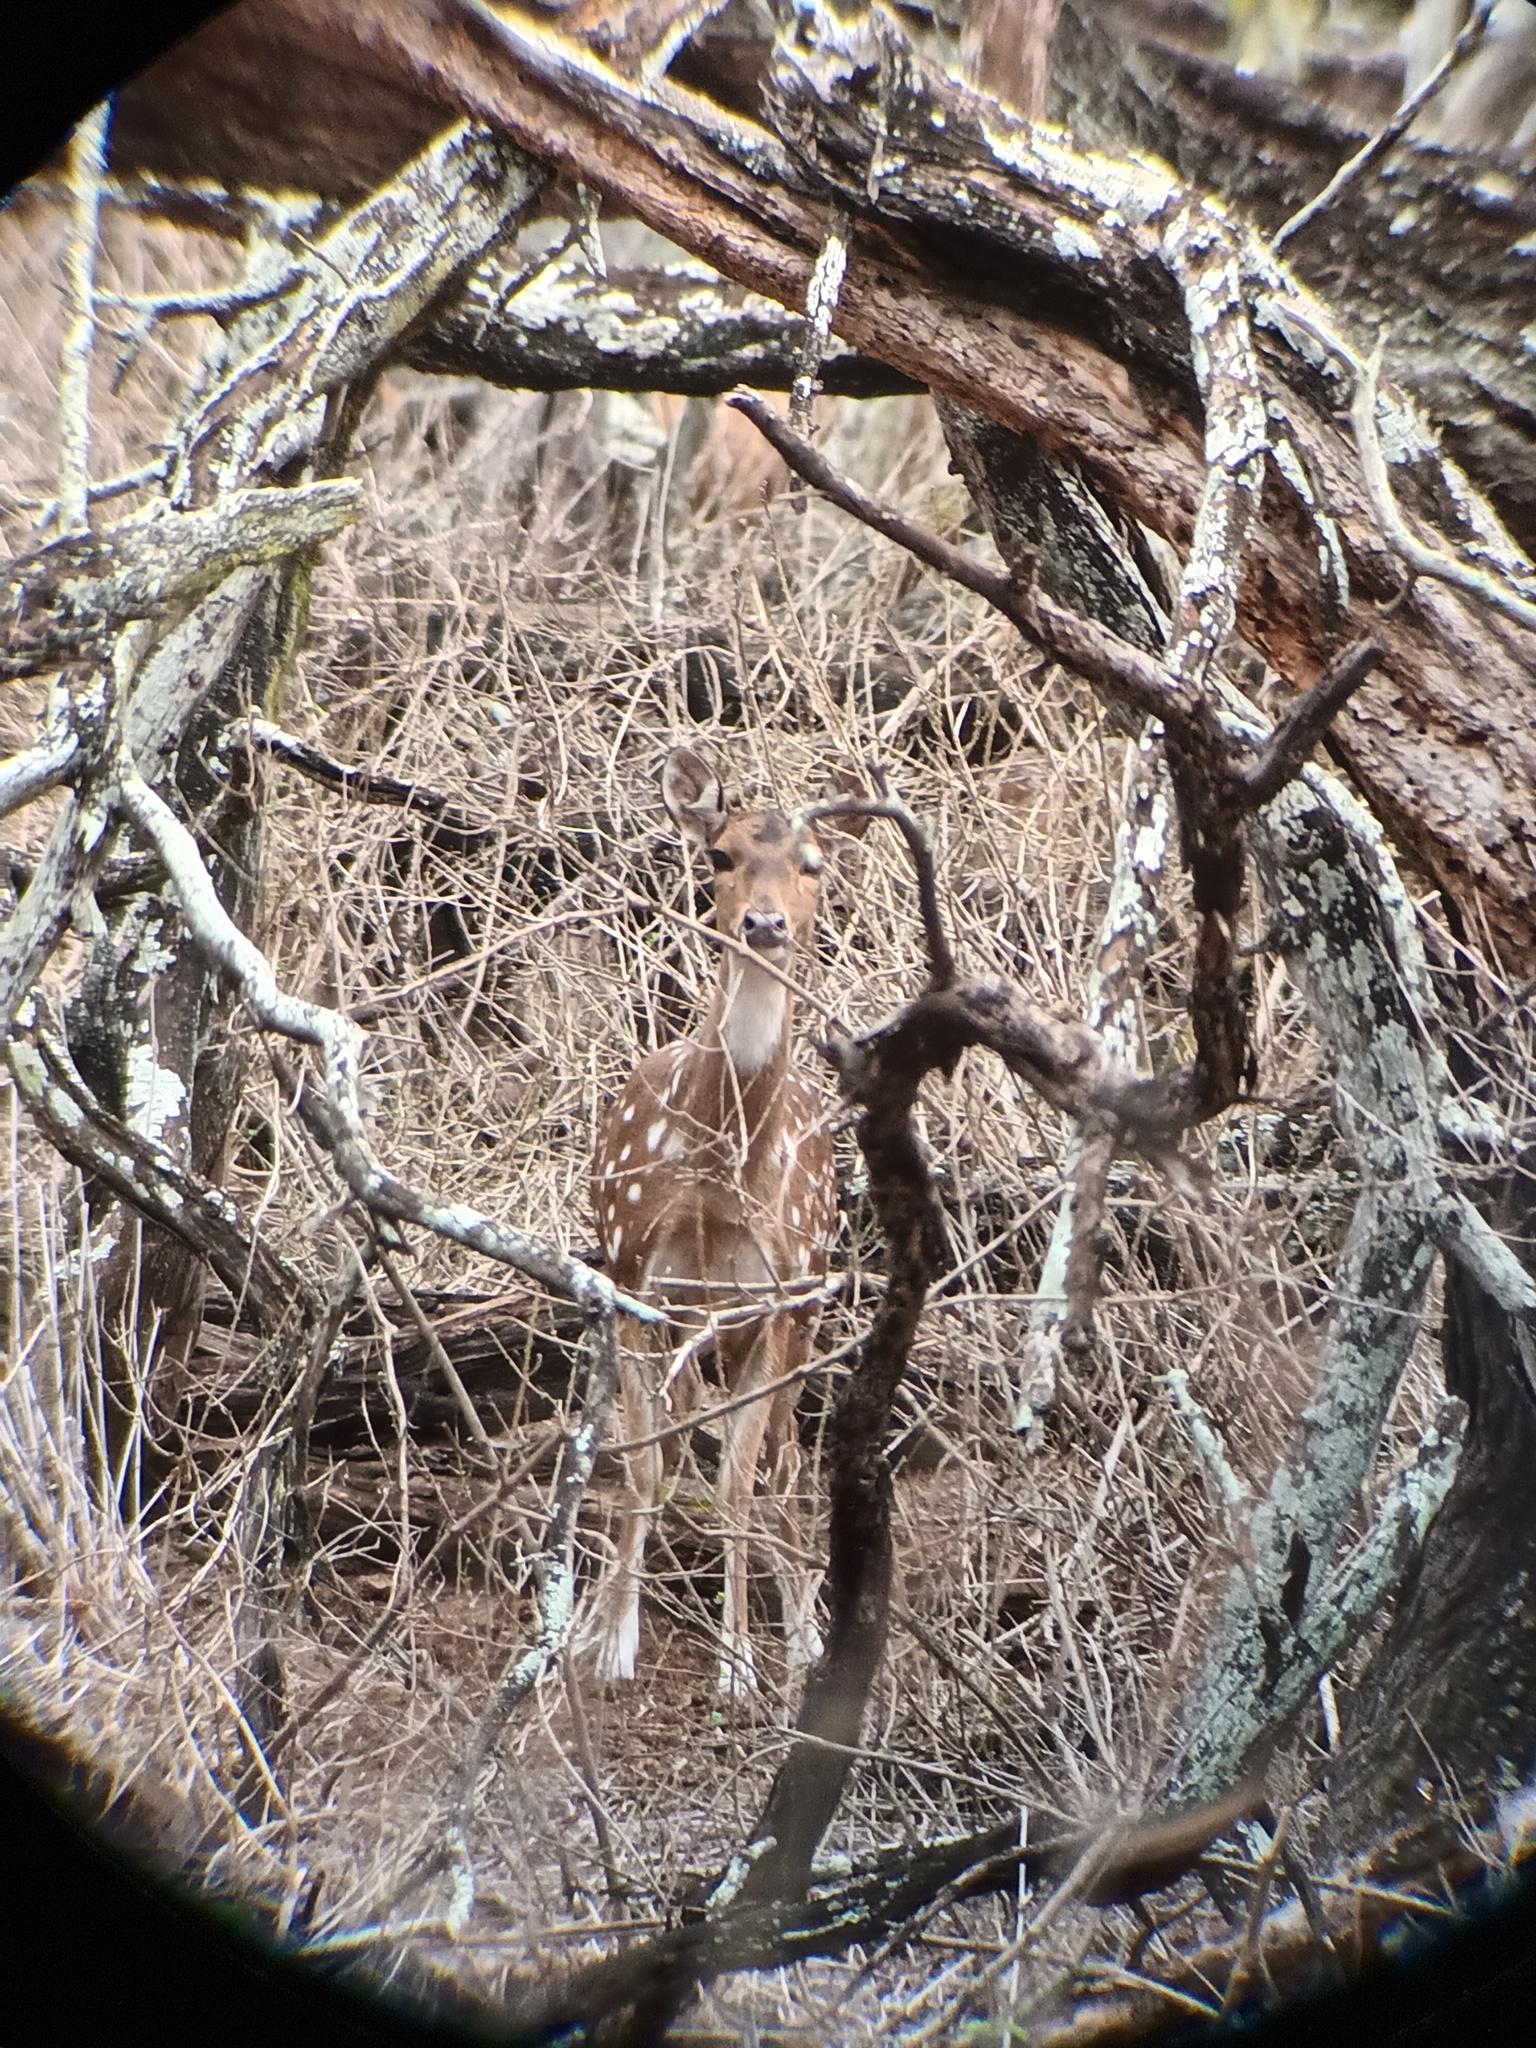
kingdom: Animalia
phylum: Chordata
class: Mammalia
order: Artiodactyla
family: Cervidae
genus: Axis
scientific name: Axis axis
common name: Chital
